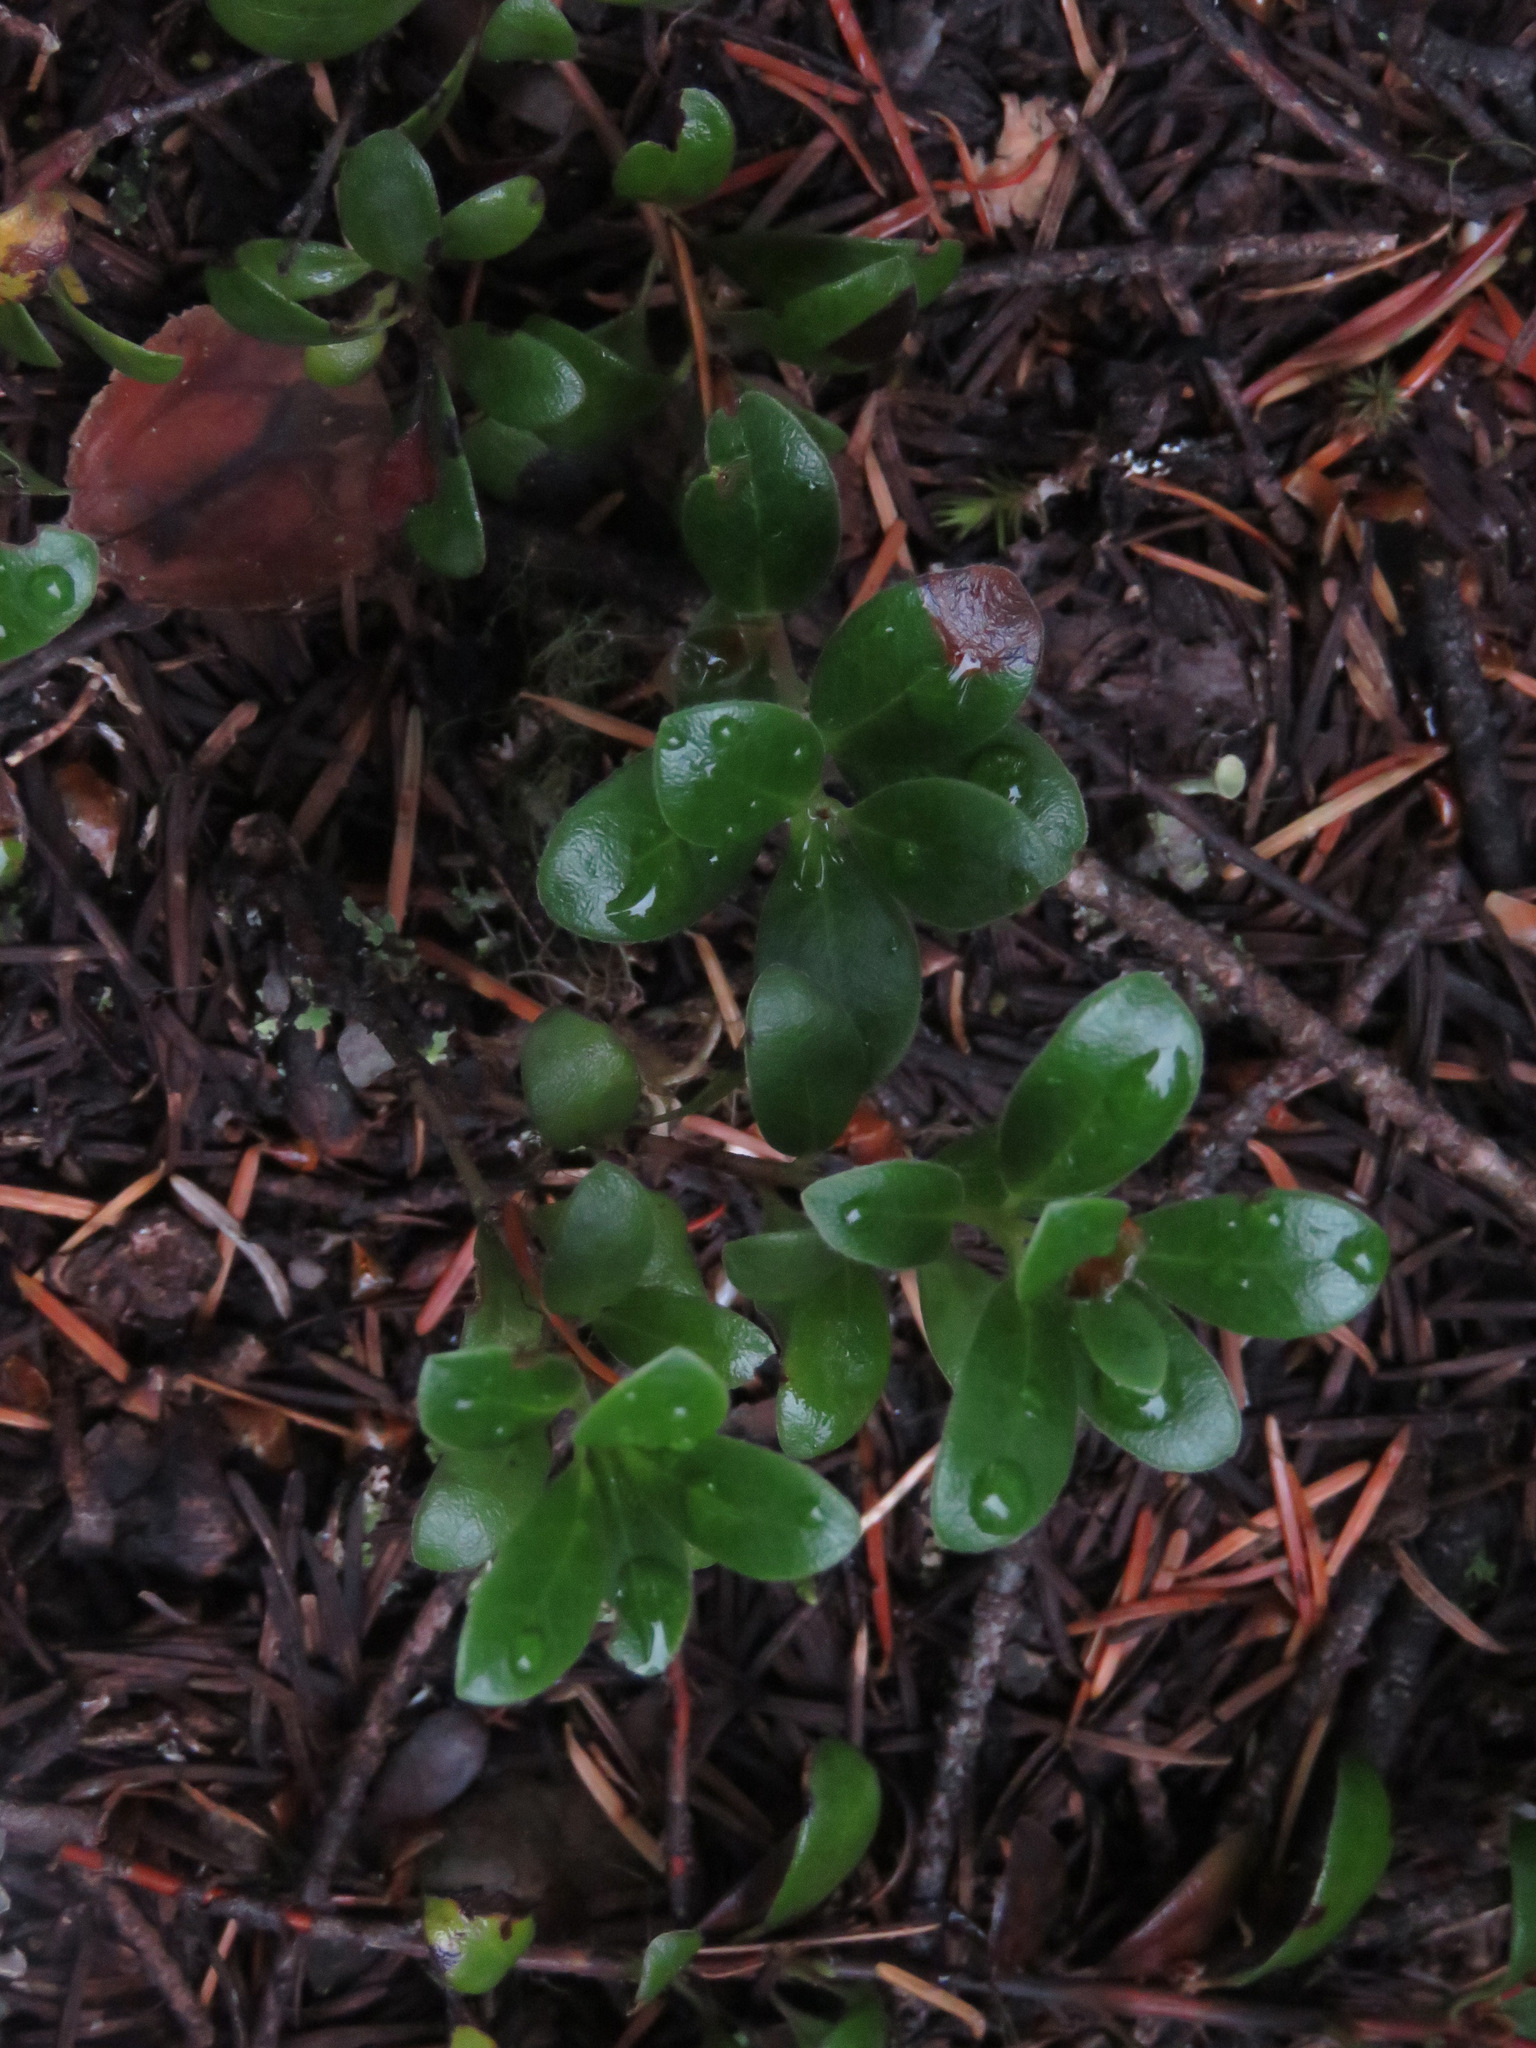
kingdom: Plantae
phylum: Tracheophyta
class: Magnoliopsida
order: Ericales
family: Ericaceae
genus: Arctostaphylos
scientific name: Arctostaphylos uva-ursi
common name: Bearberry
